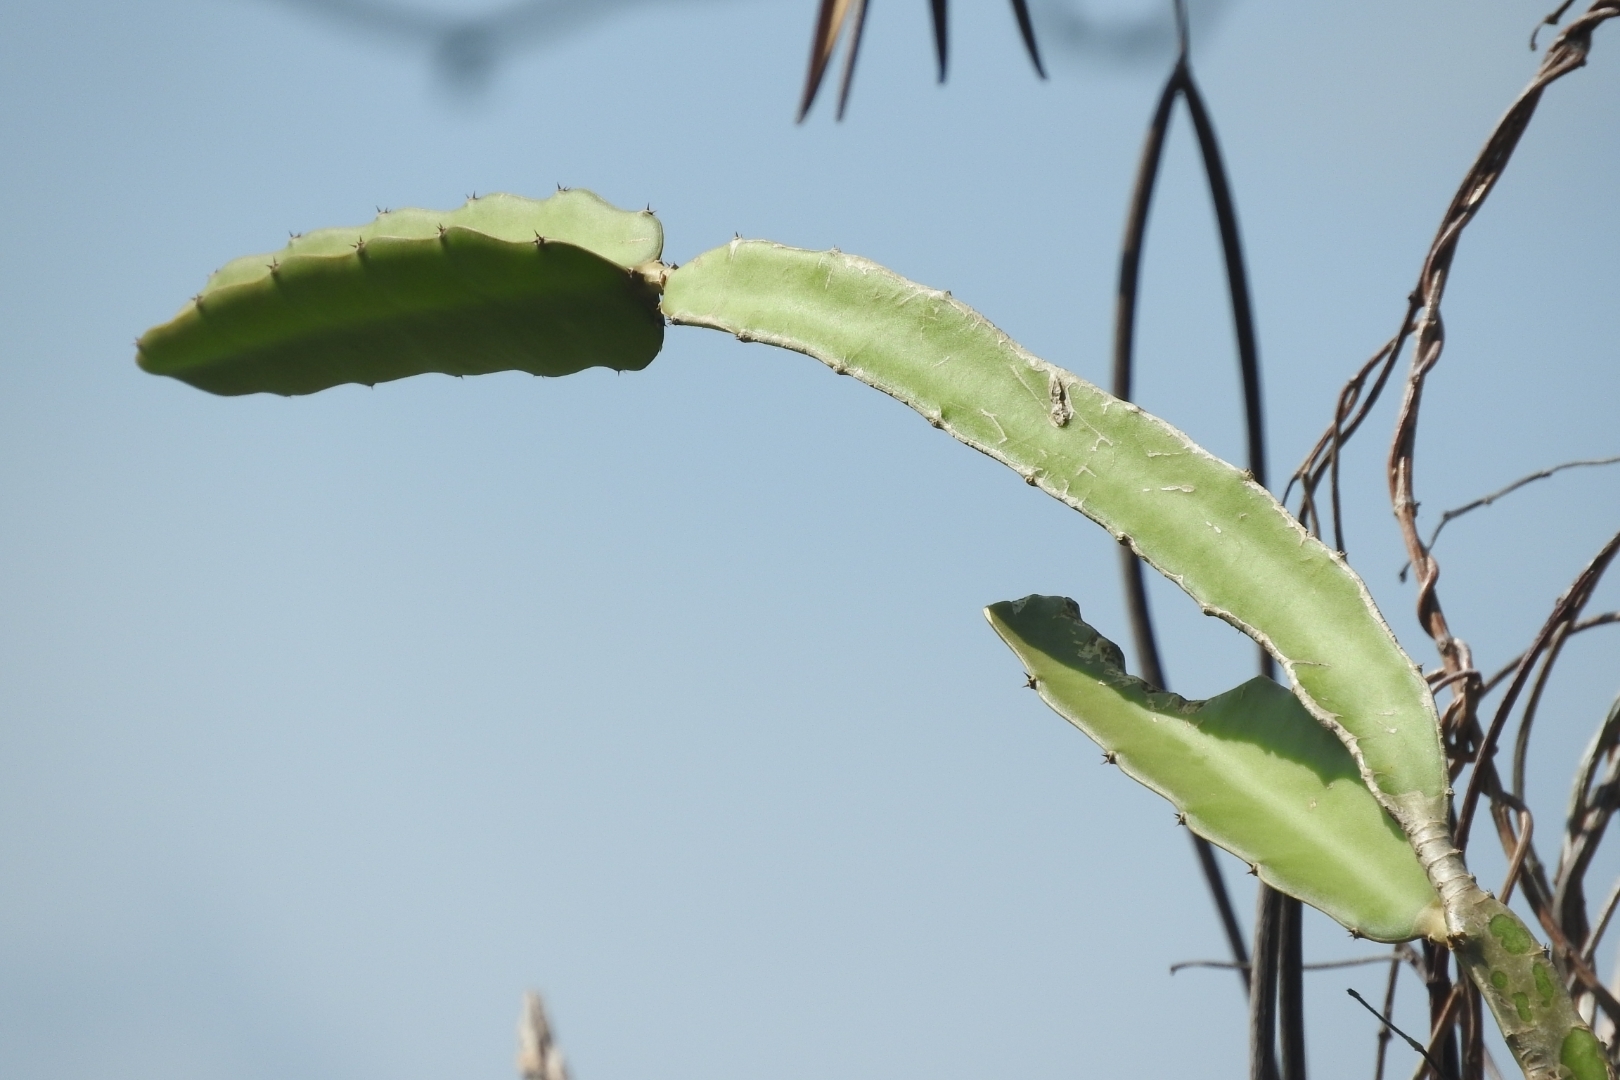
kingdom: Plantae
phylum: Tracheophyta
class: Magnoliopsida
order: Caryophyllales
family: Cactaceae
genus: Selenicereus
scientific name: Selenicereus undatus
